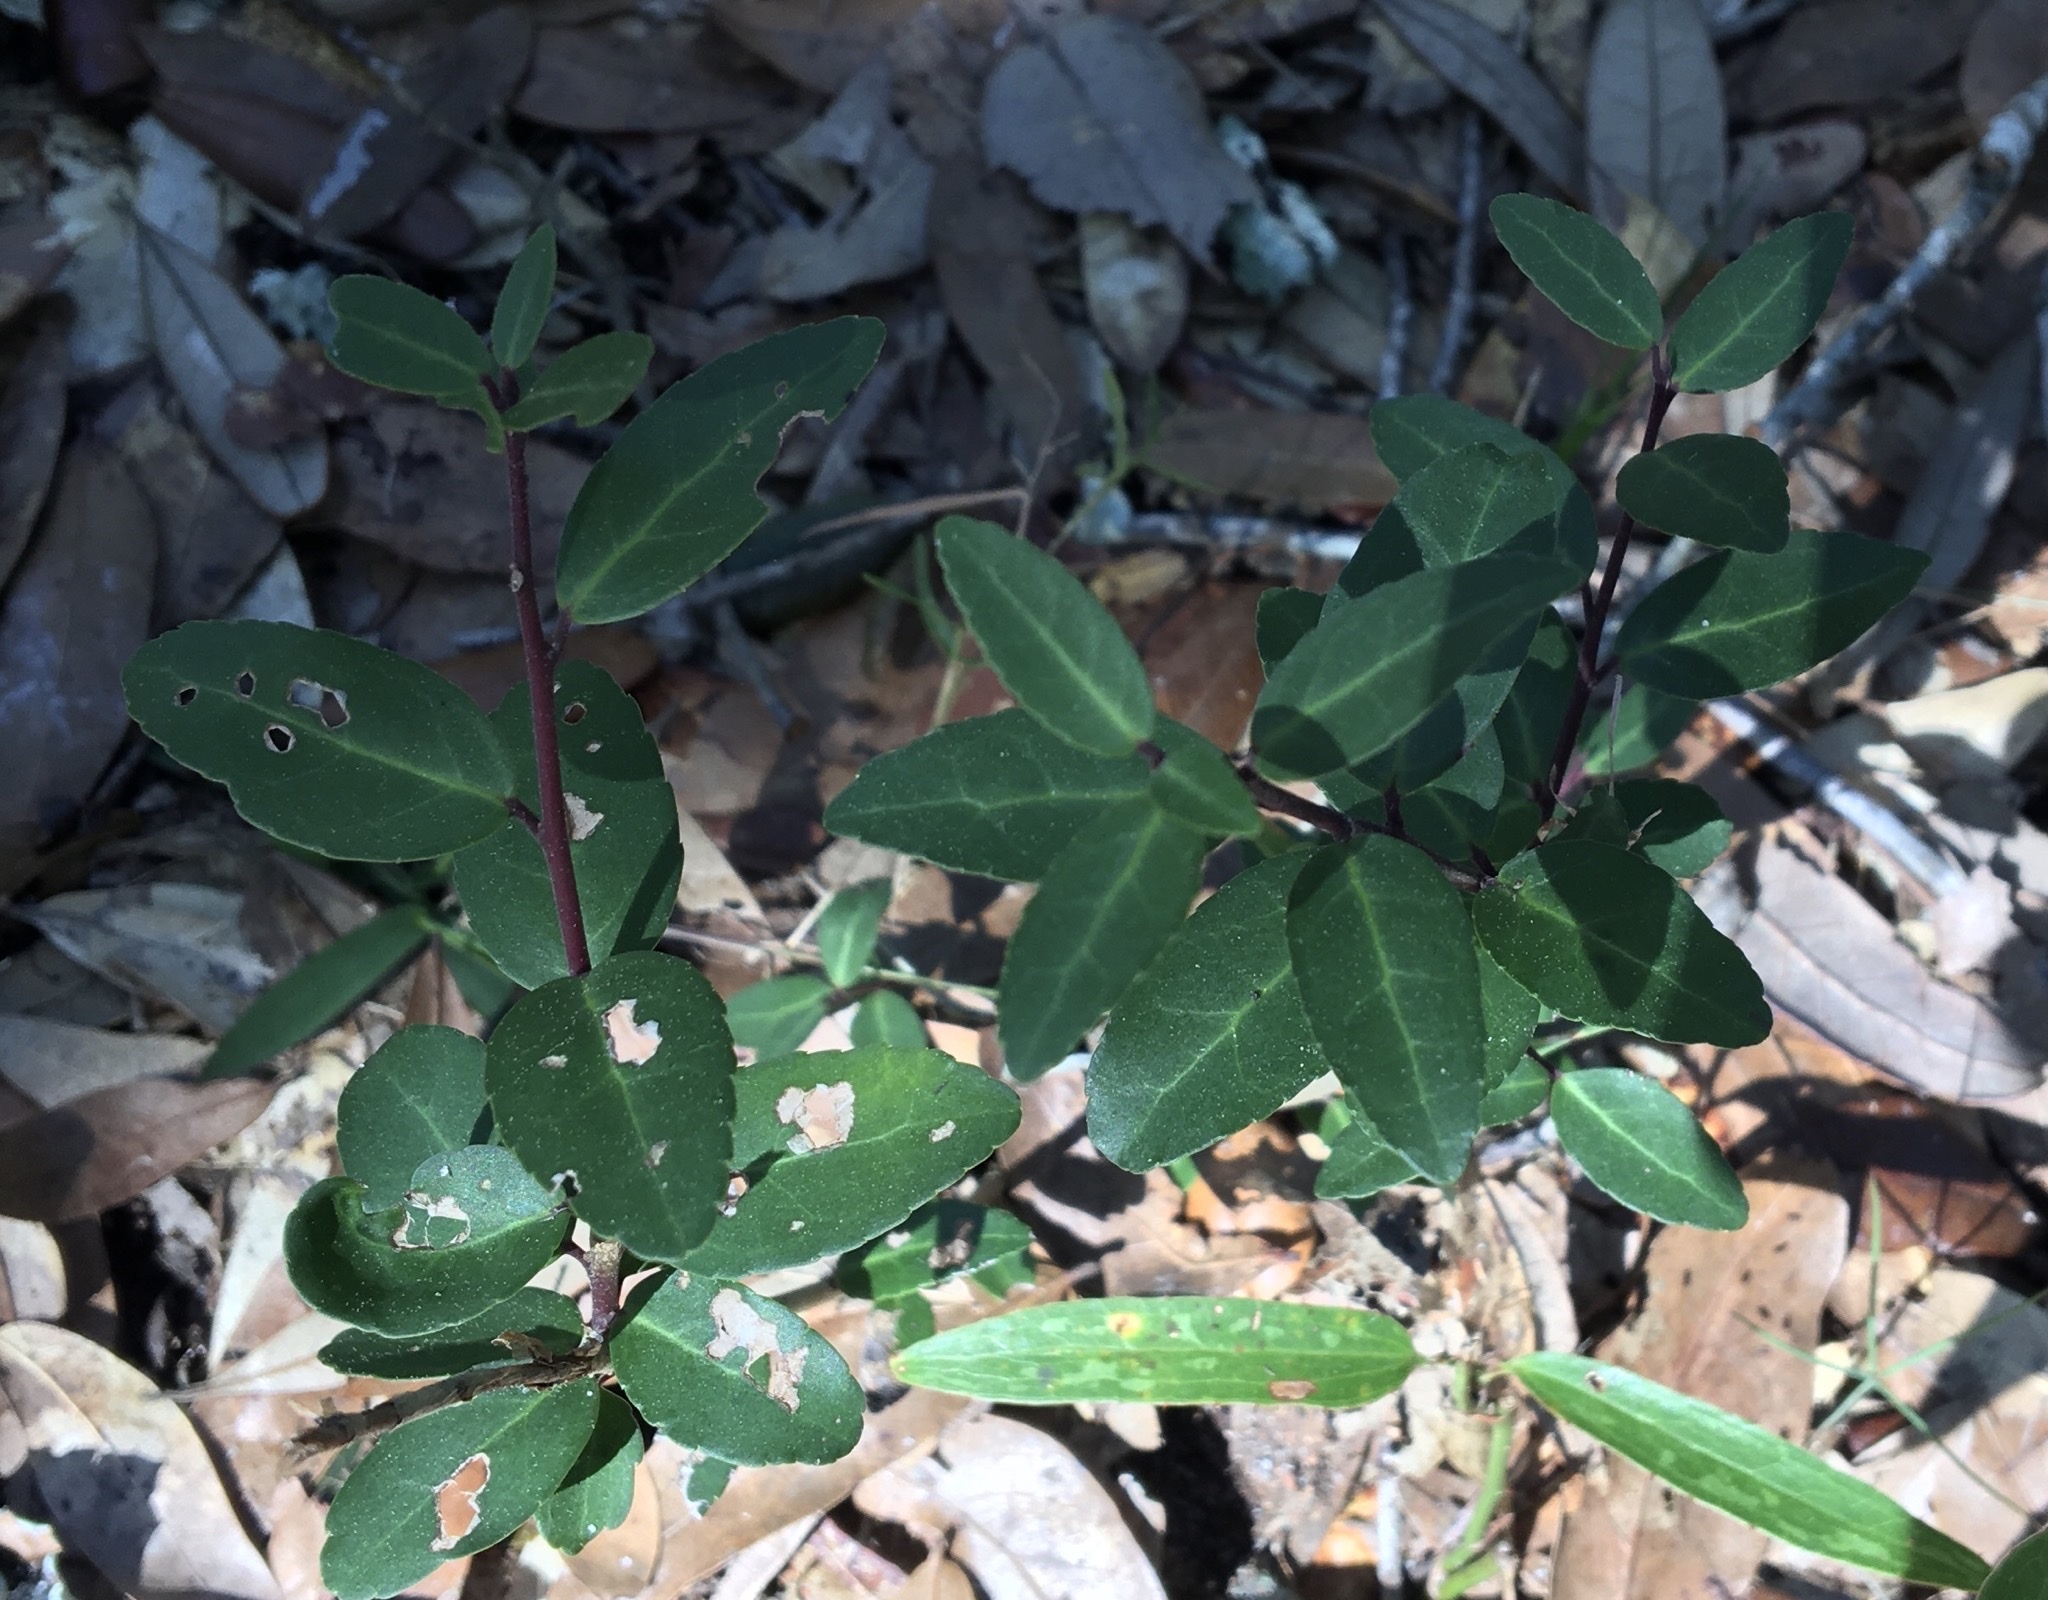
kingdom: Plantae
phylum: Tracheophyta
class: Magnoliopsida
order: Aquifoliales
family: Aquifoliaceae
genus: Ilex
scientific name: Ilex vomitoria
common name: Yaupon holly
